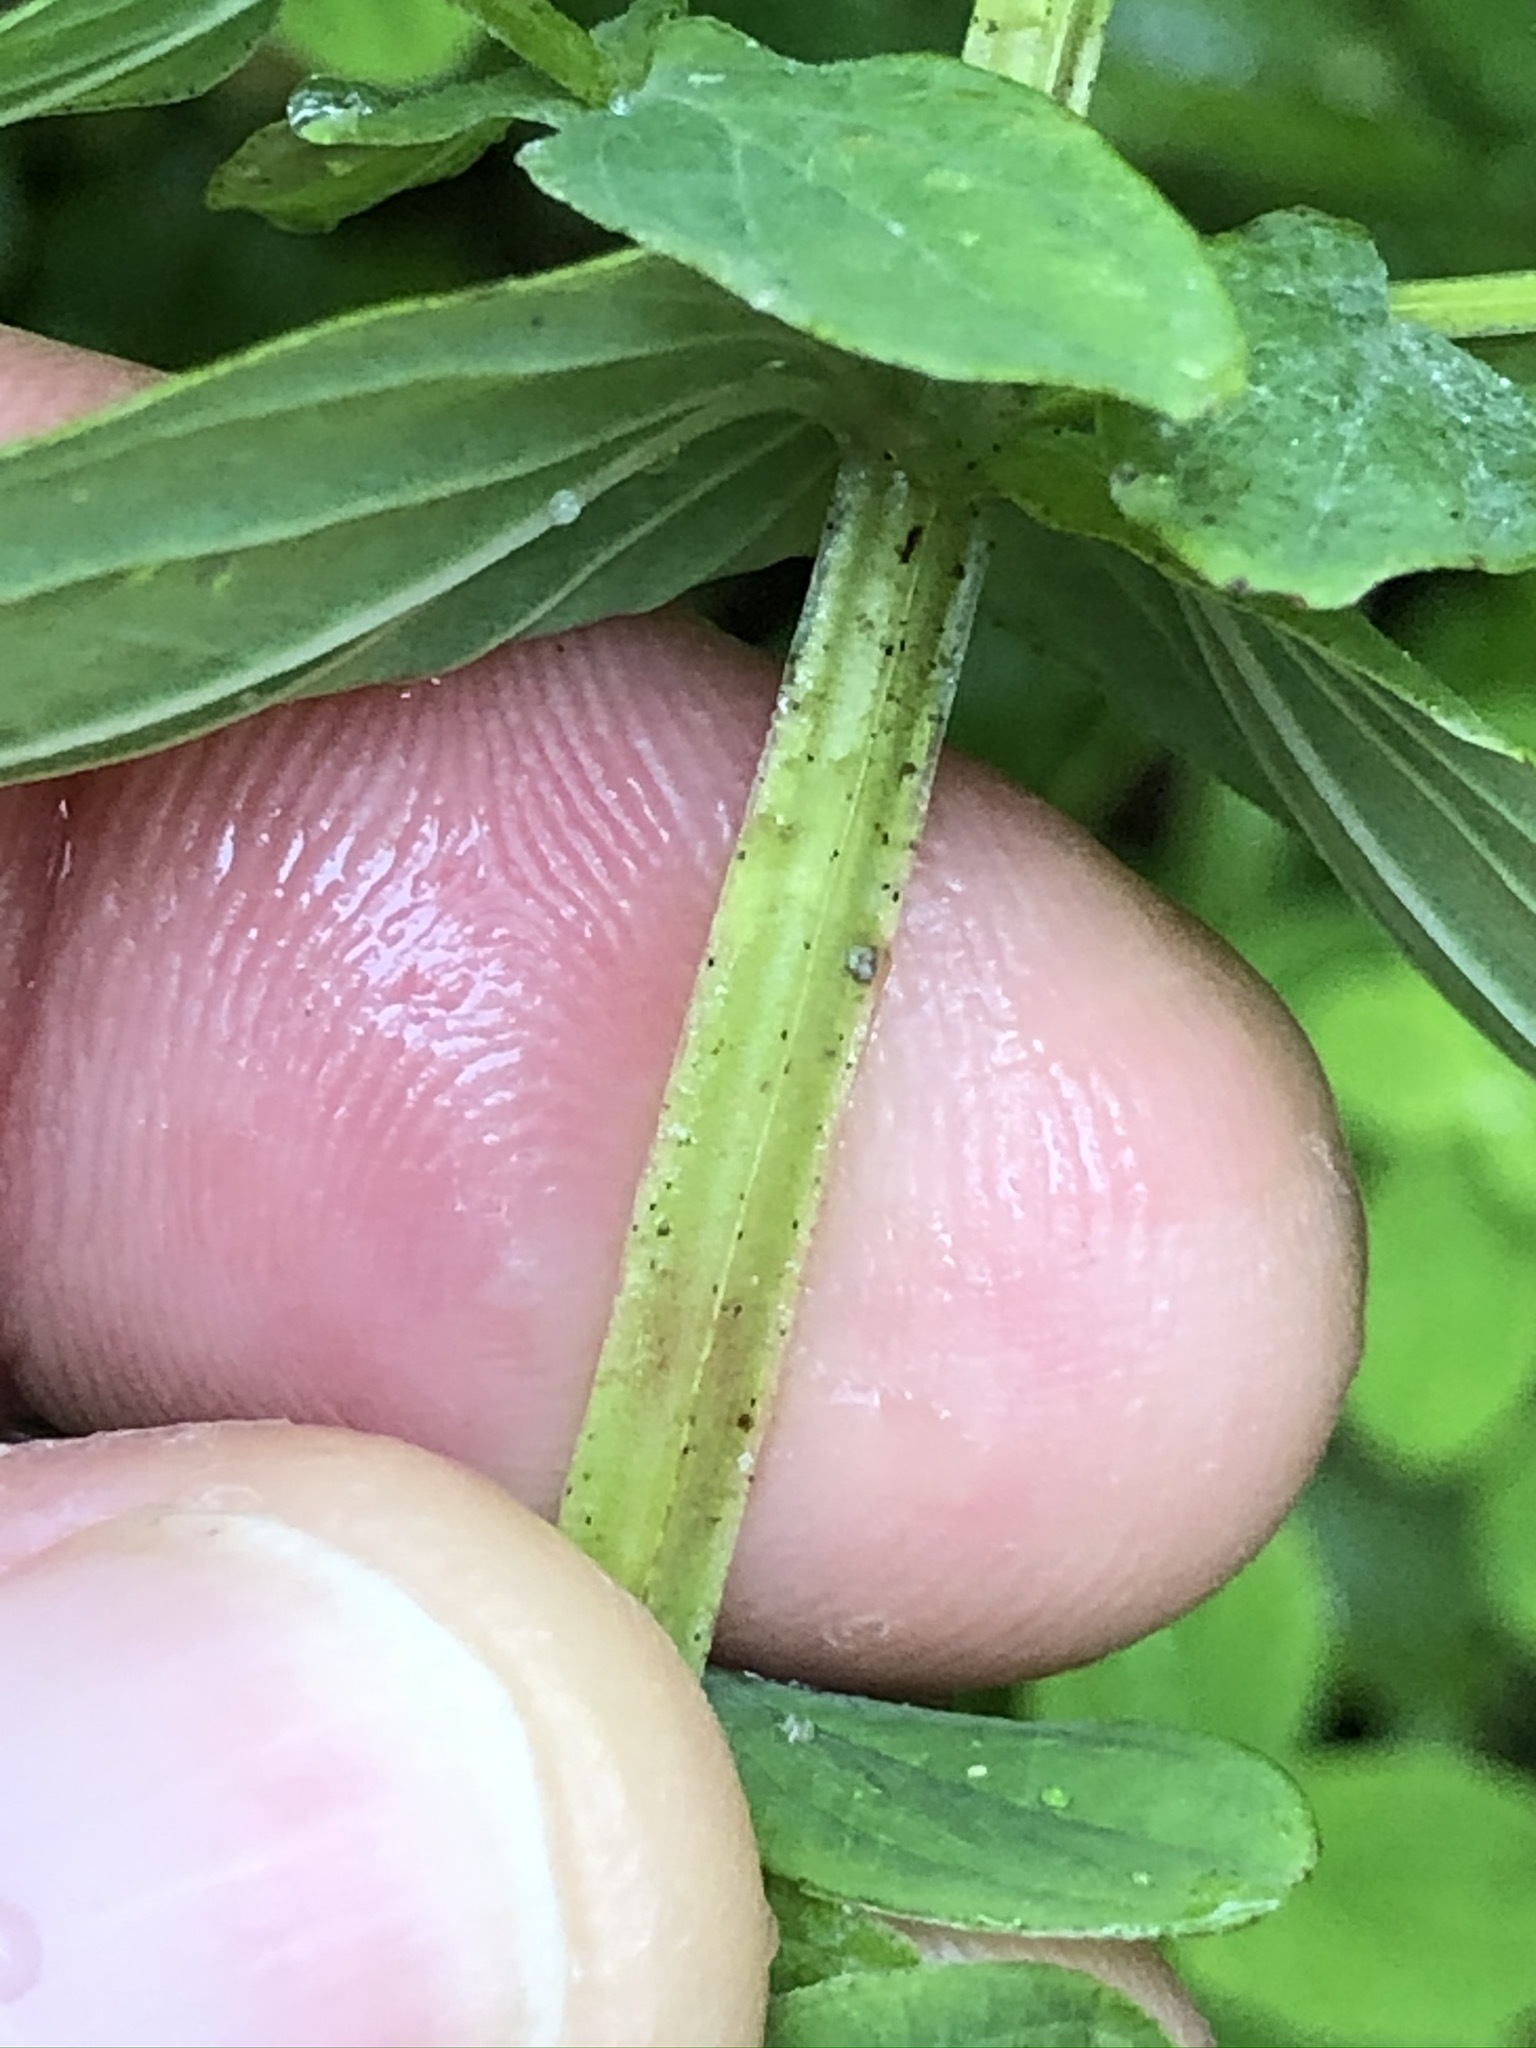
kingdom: Plantae
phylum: Tracheophyta
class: Magnoliopsida
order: Malpighiales
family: Hypericaceae
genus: Hypericum
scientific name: Hypericum tetrapterum
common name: Square-stalked st. john's-wort
